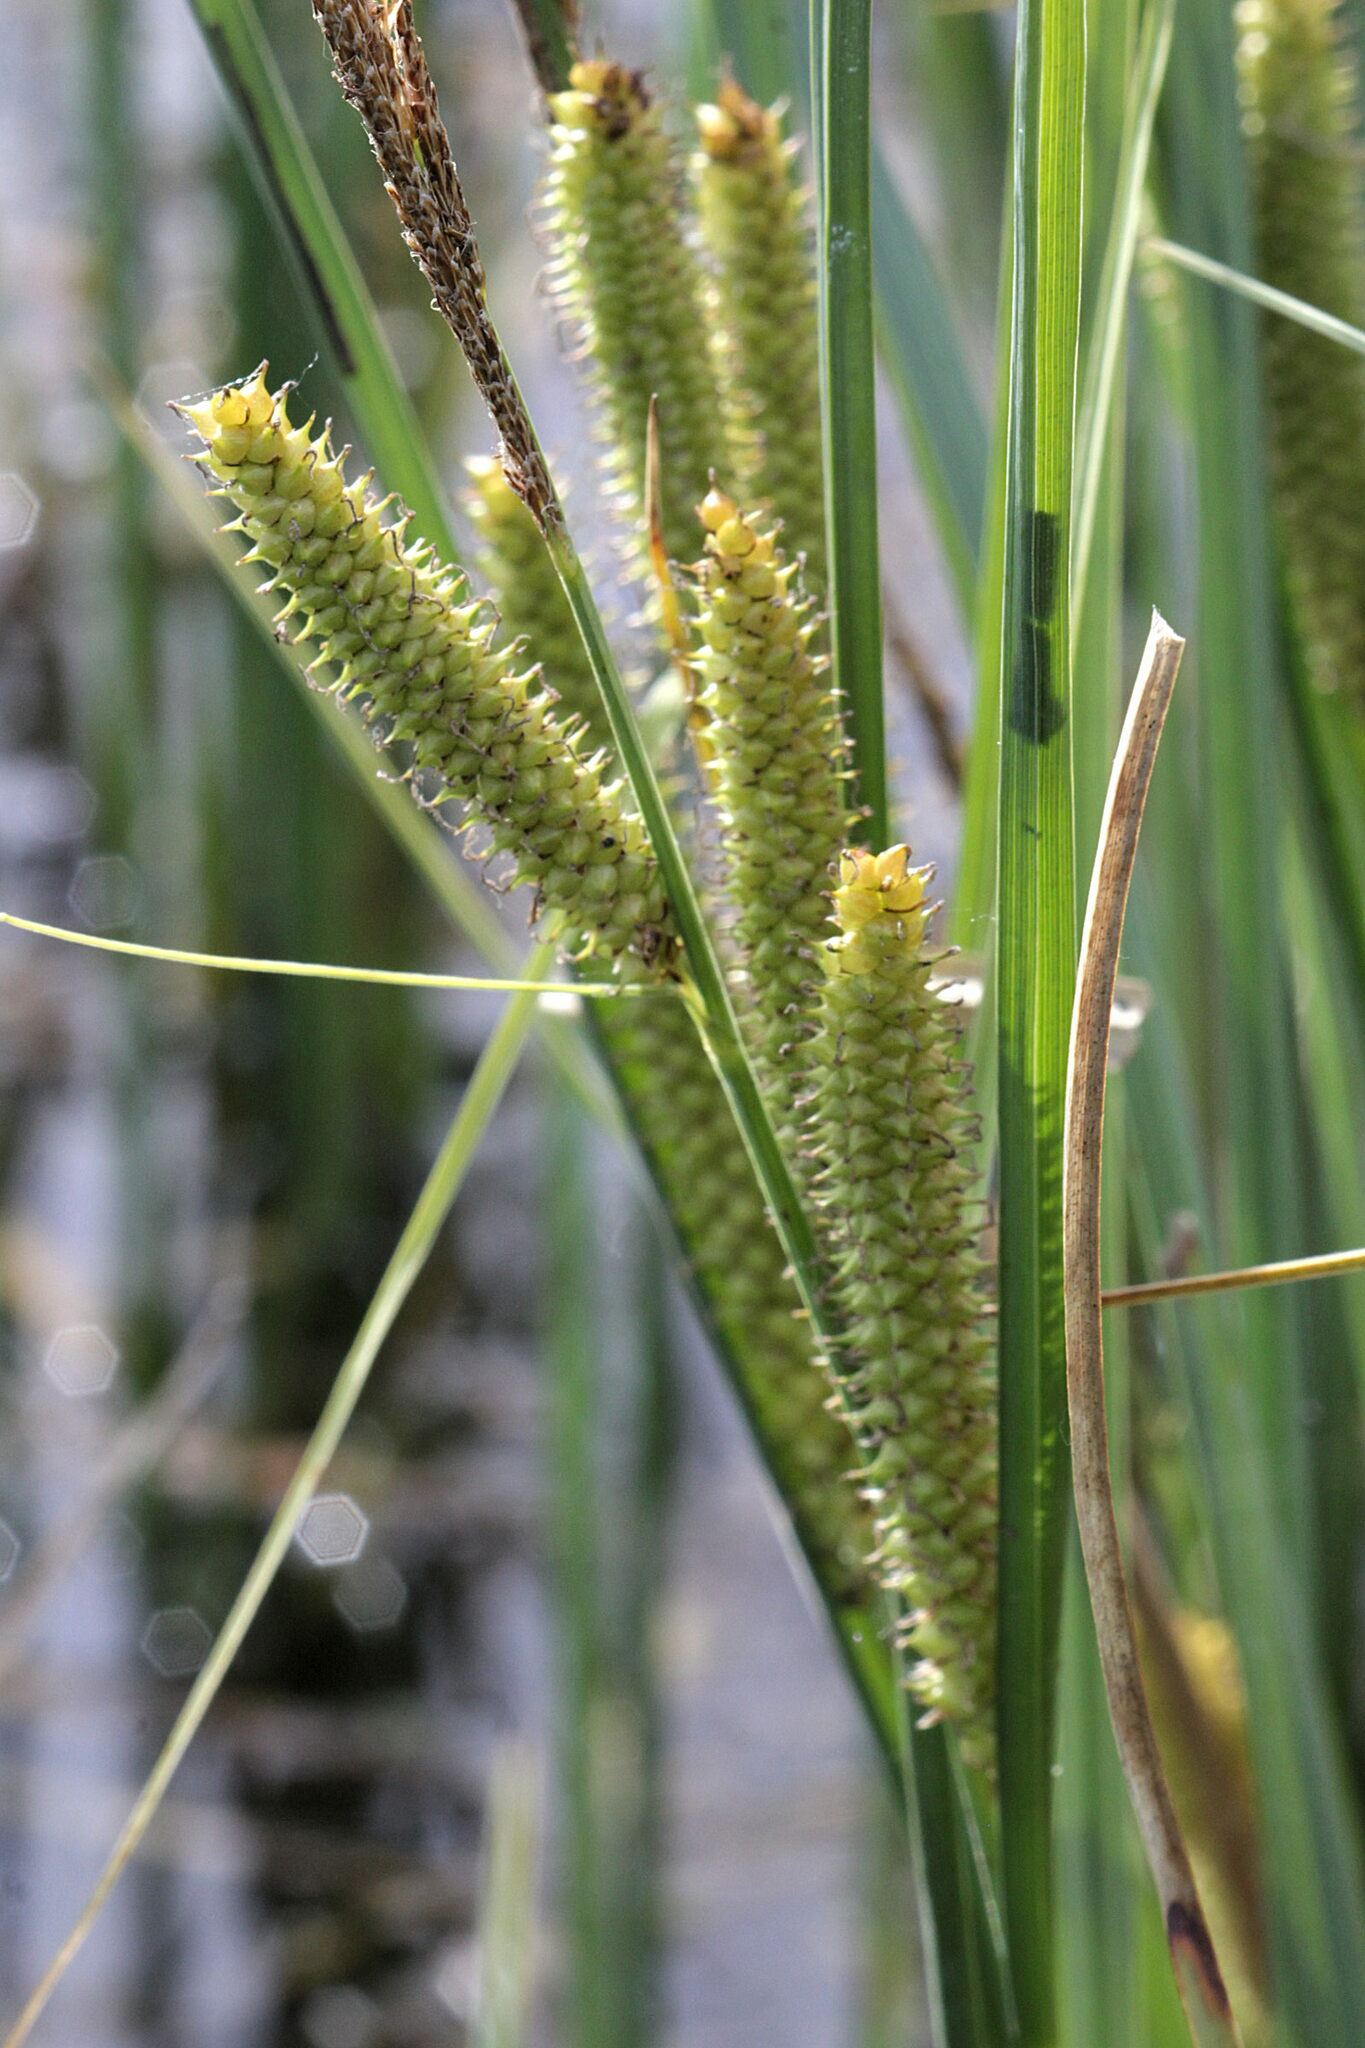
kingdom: Plantae
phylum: Tracheophyta
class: Liliopsida
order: Poales
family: Cyperaceae
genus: Carex
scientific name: Carex rostrata
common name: Bottle sedge
